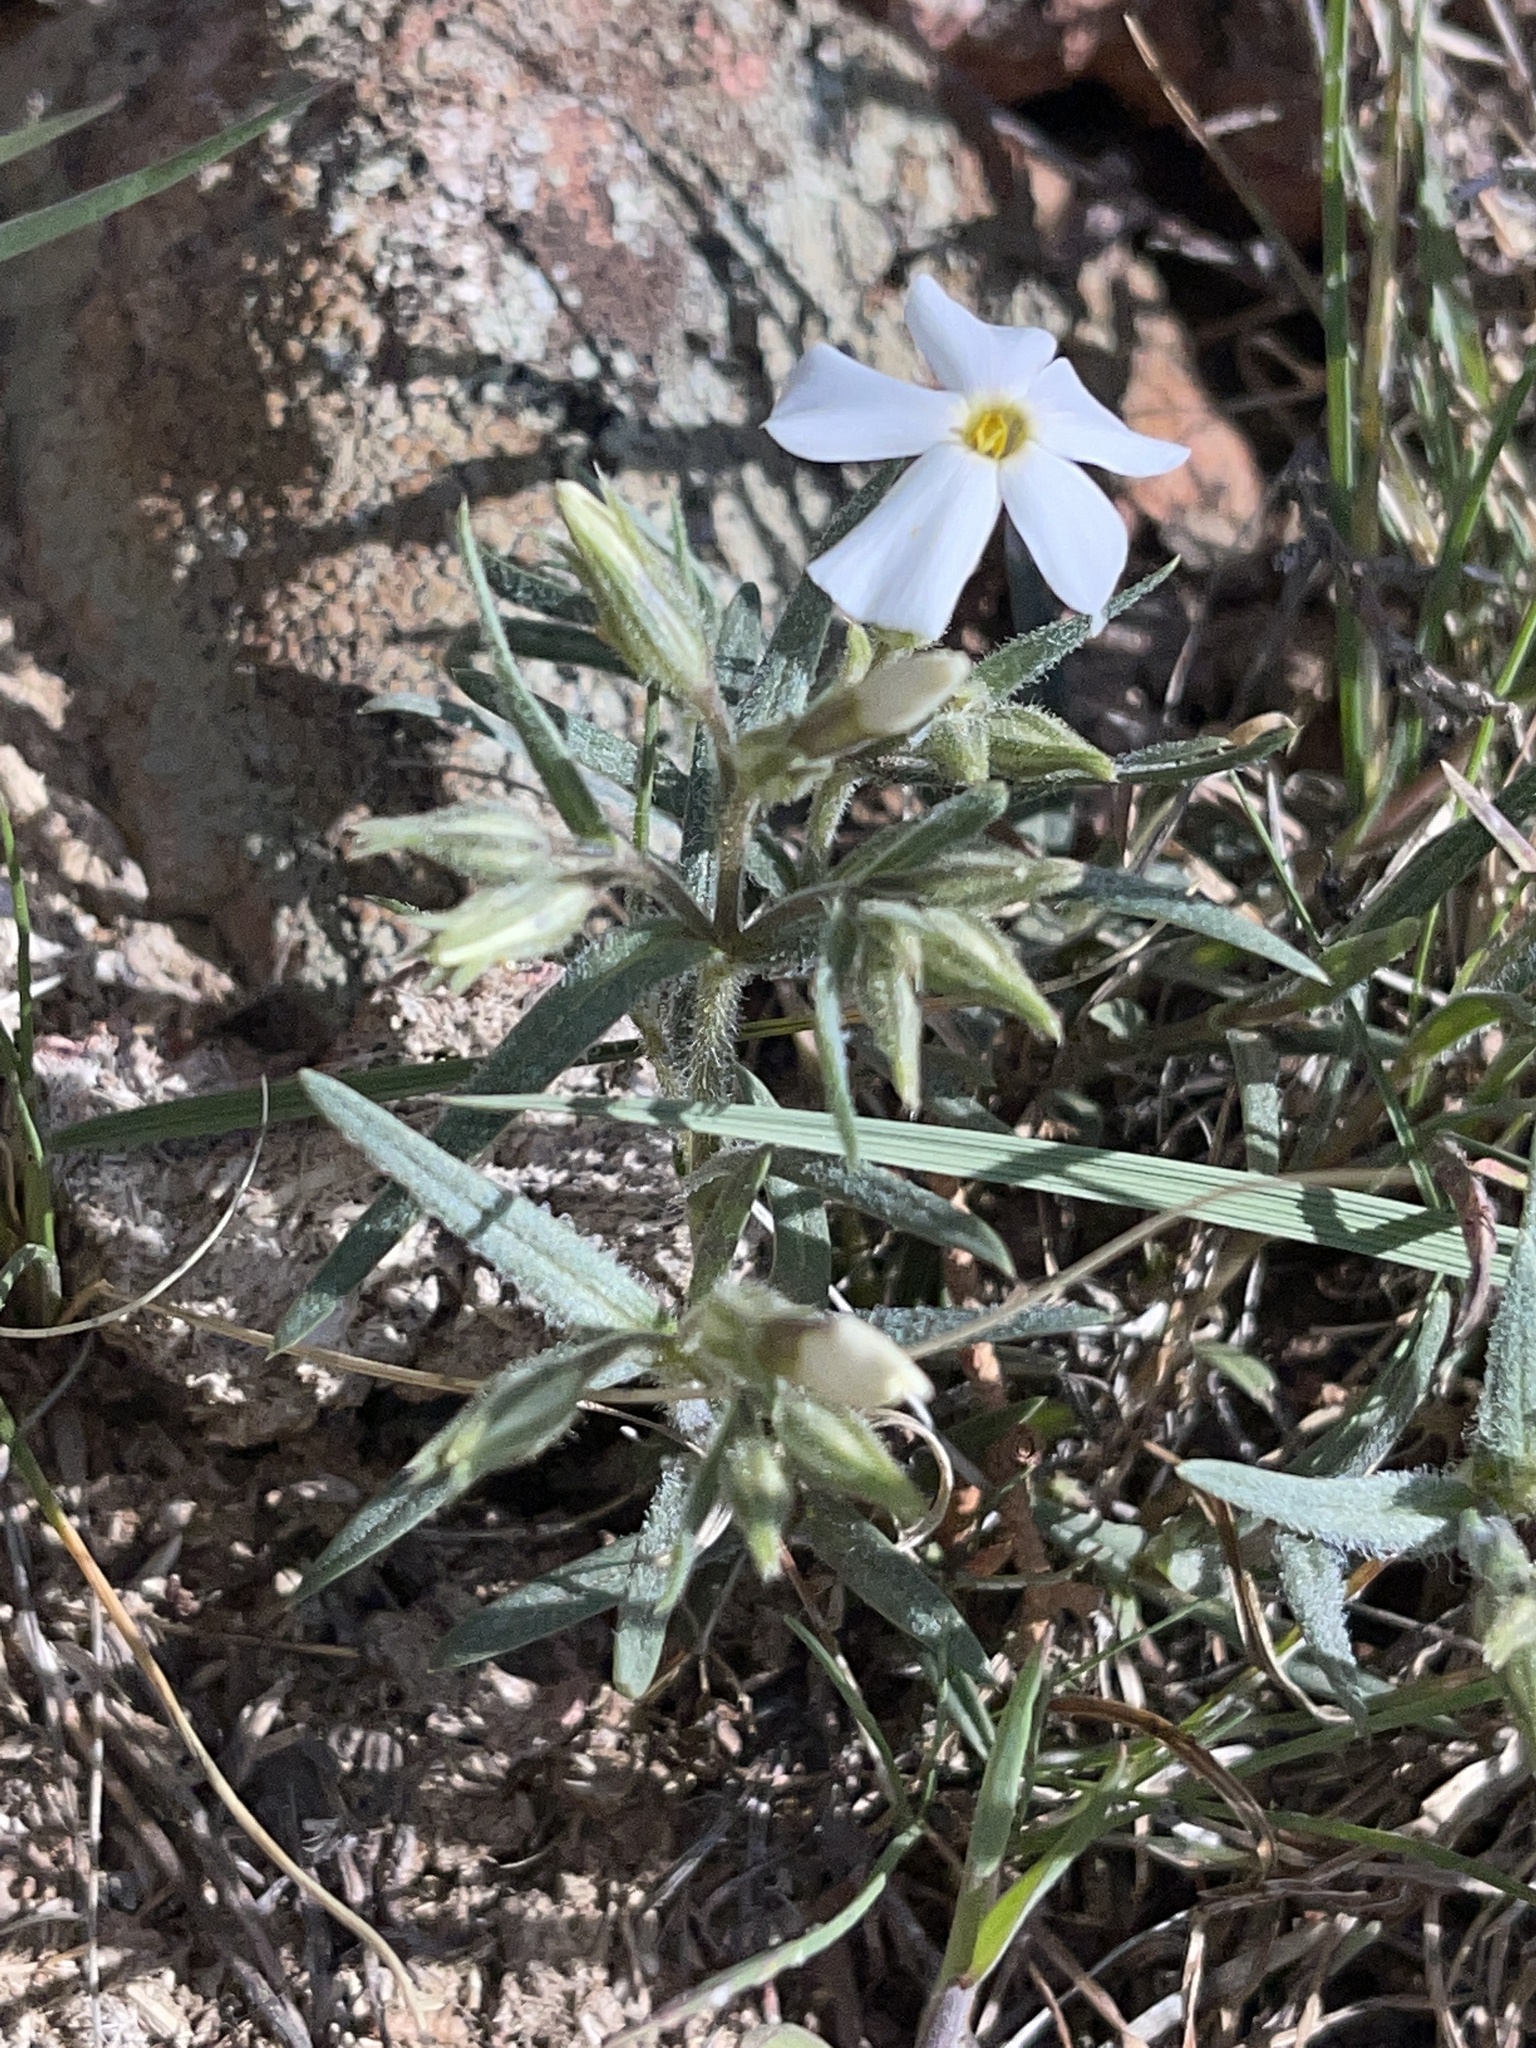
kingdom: Plantae
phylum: Tracheophyta
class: Magnoliopsida
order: Ericales
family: Polemoniaceae
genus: Phlox
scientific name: Phlox longifolia
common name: Longleaf phlox
